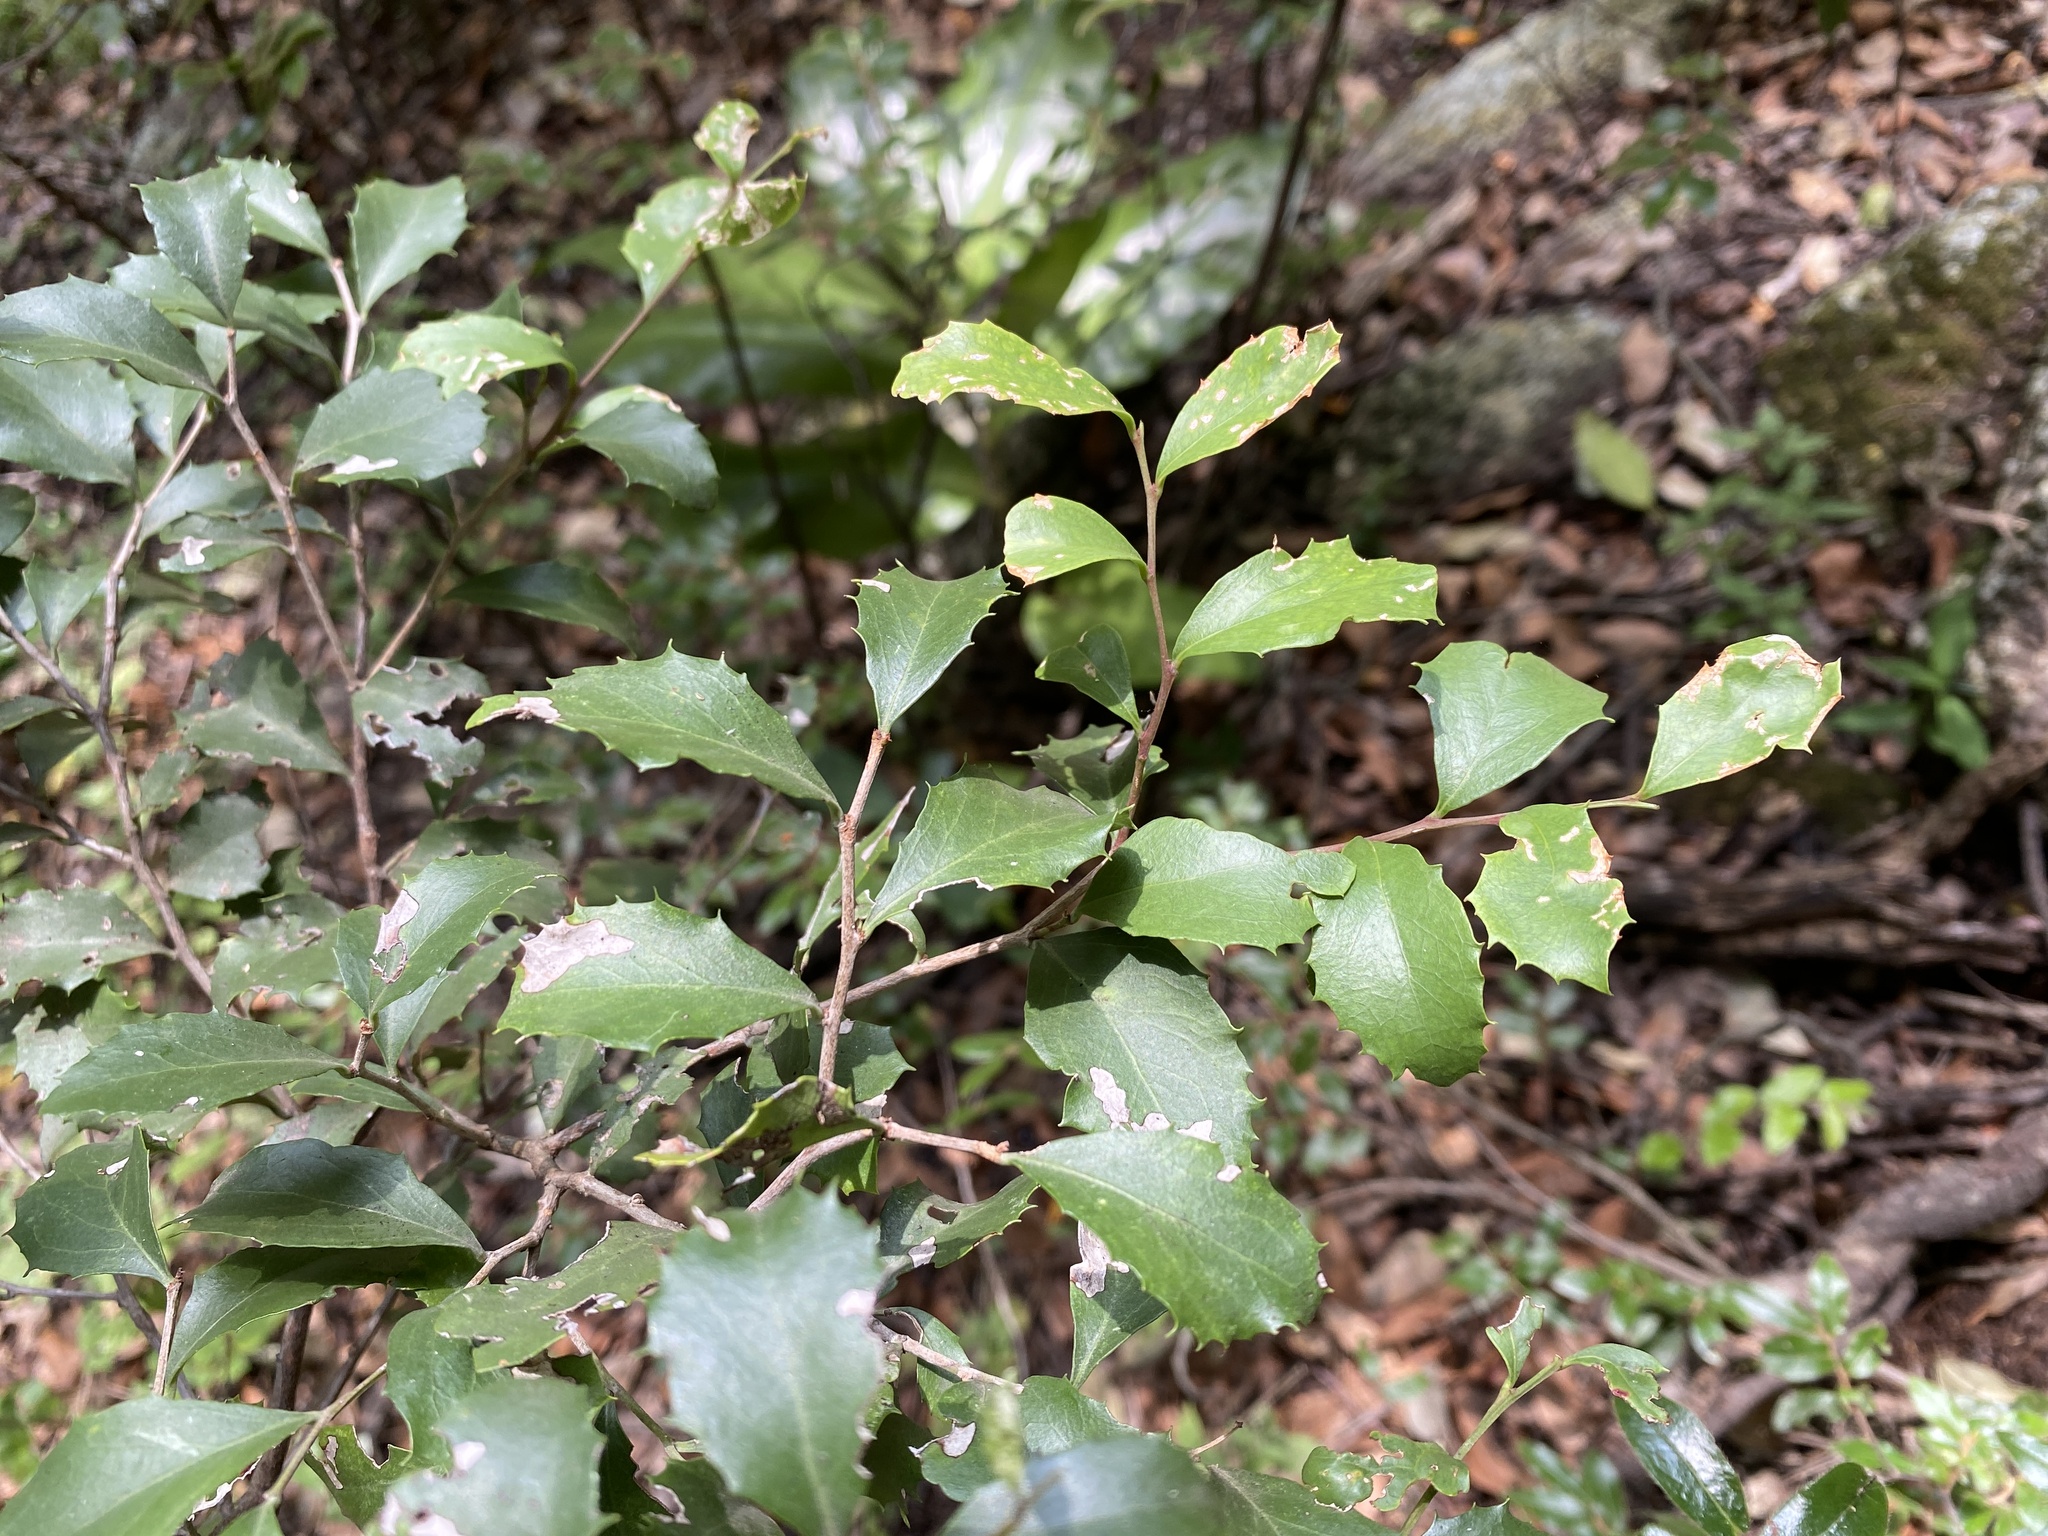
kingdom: Plantae
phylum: Tracheophyta
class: Magnoliopsida
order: Celastrales
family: Celastraceae
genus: Gymnosporia
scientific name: Gymnosporia undata
